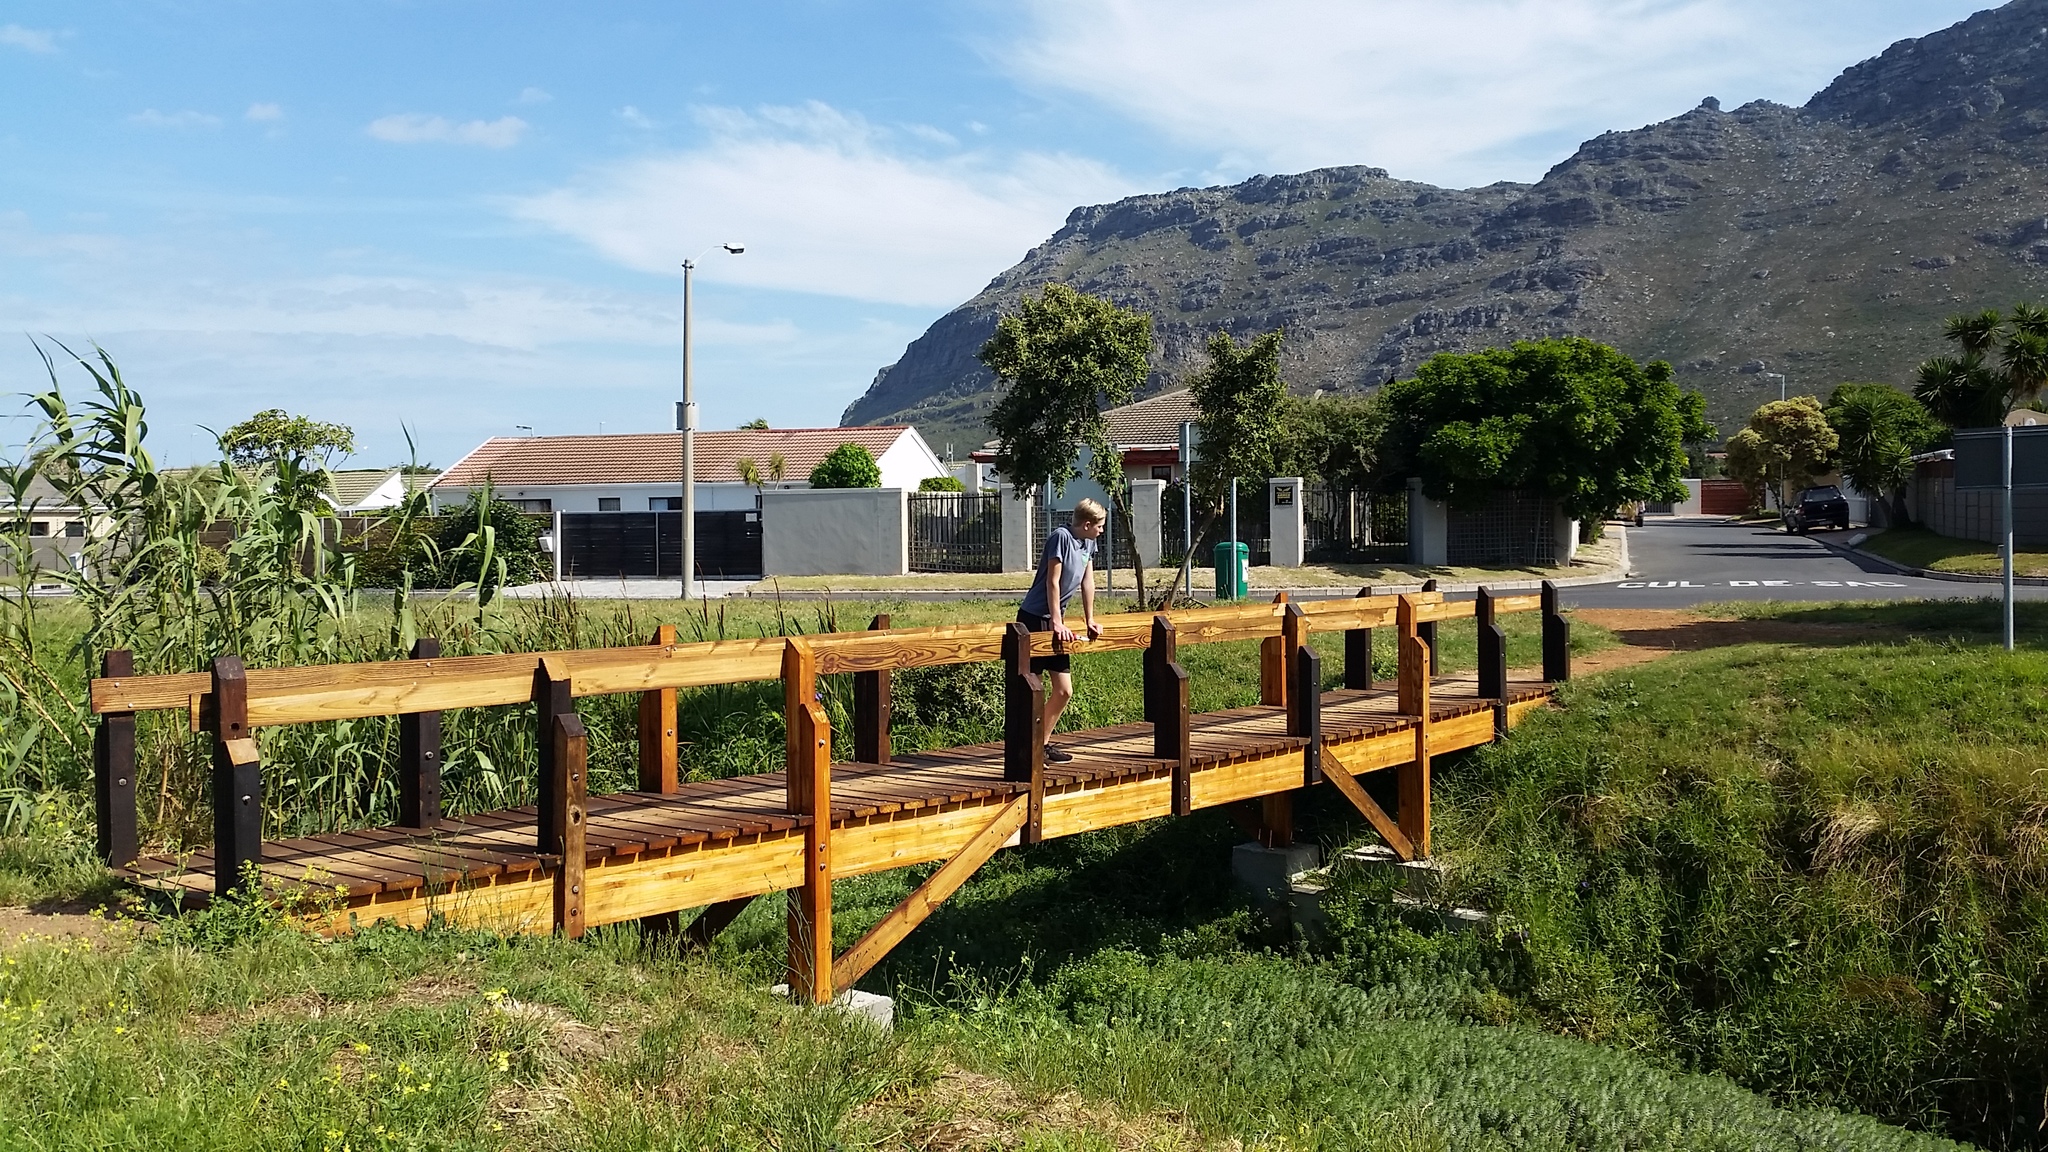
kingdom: Plantae
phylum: Tracheophyta
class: Magnoliopsida
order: Saxifragales
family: Haloragaceae
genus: Myriophyllum
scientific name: Myriophyllum aquaticum
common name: Parrot's feather
